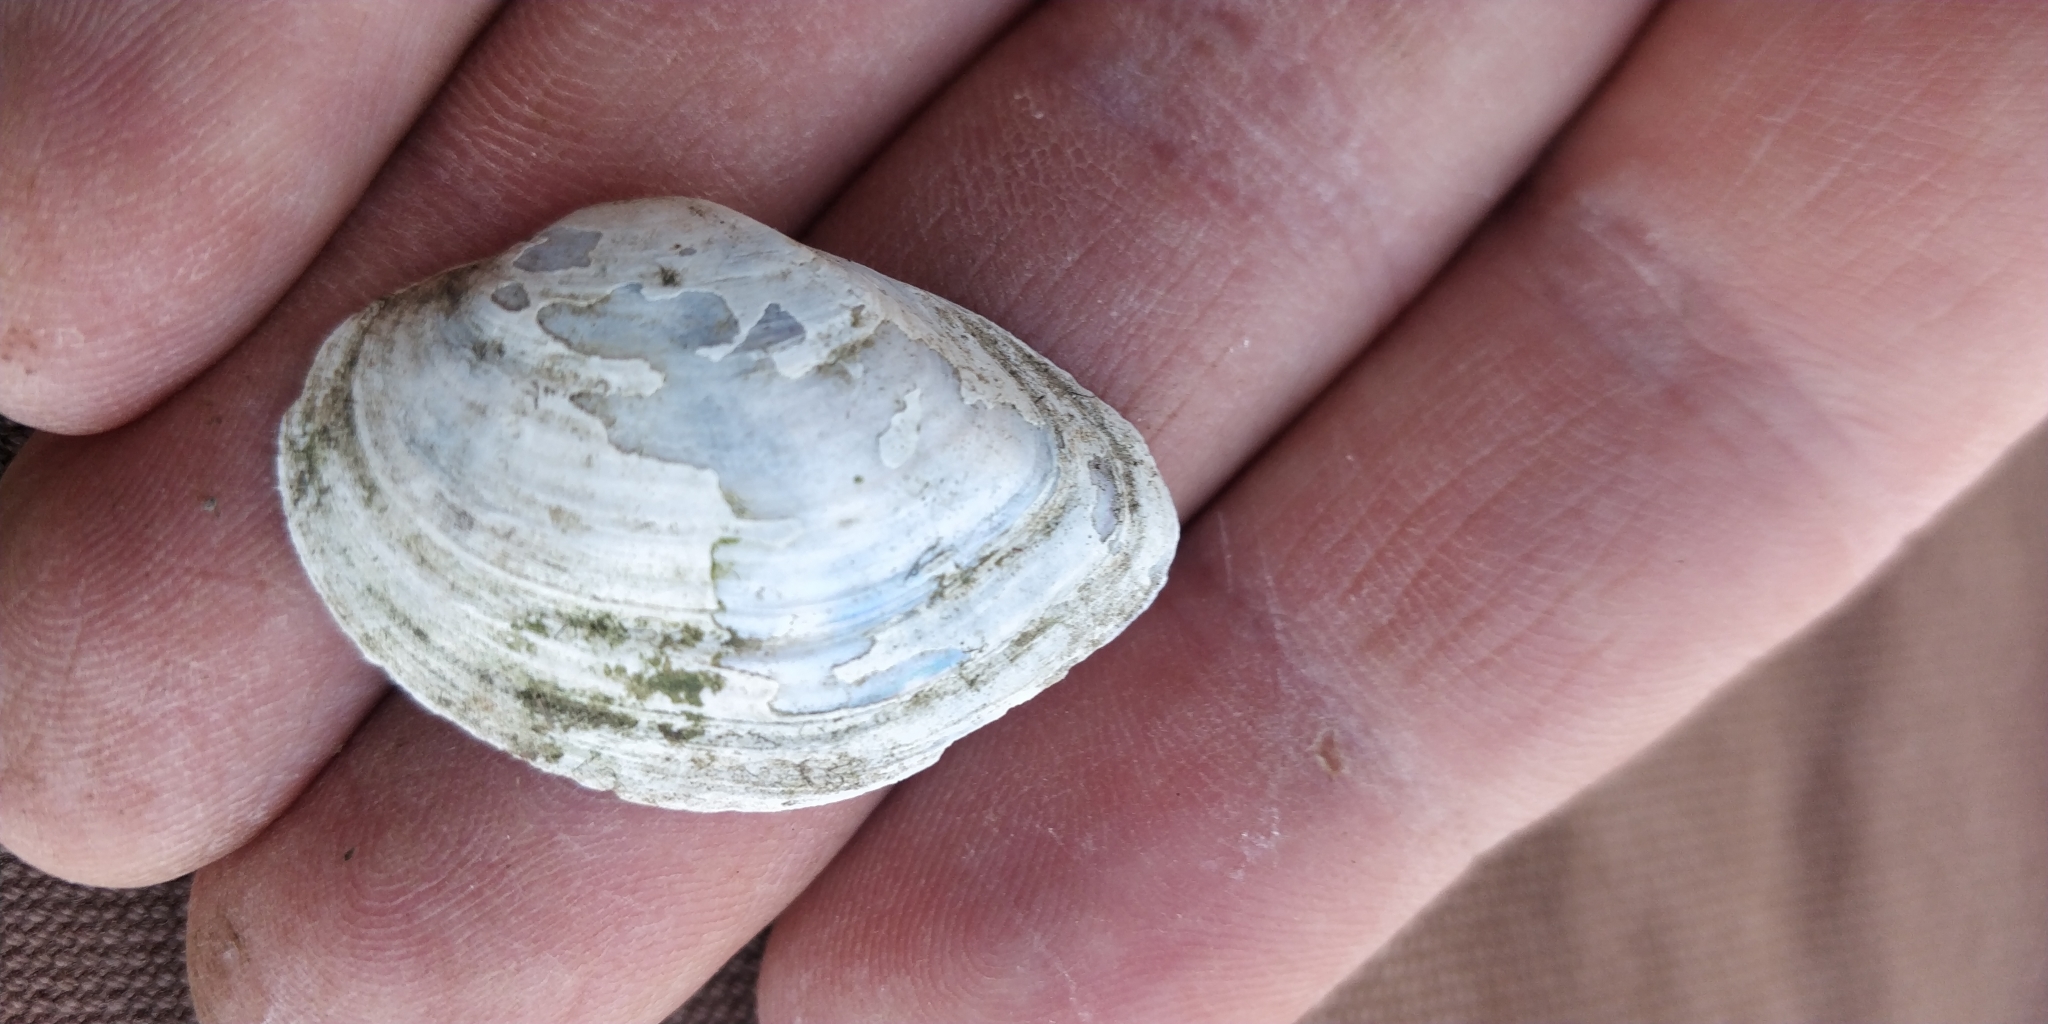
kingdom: Animalia
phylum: Mollusca
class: Bivalvia
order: Unionida
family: Unionidae
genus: Truncilla
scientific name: Truncilla donaciformis
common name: Fawnsfoot
